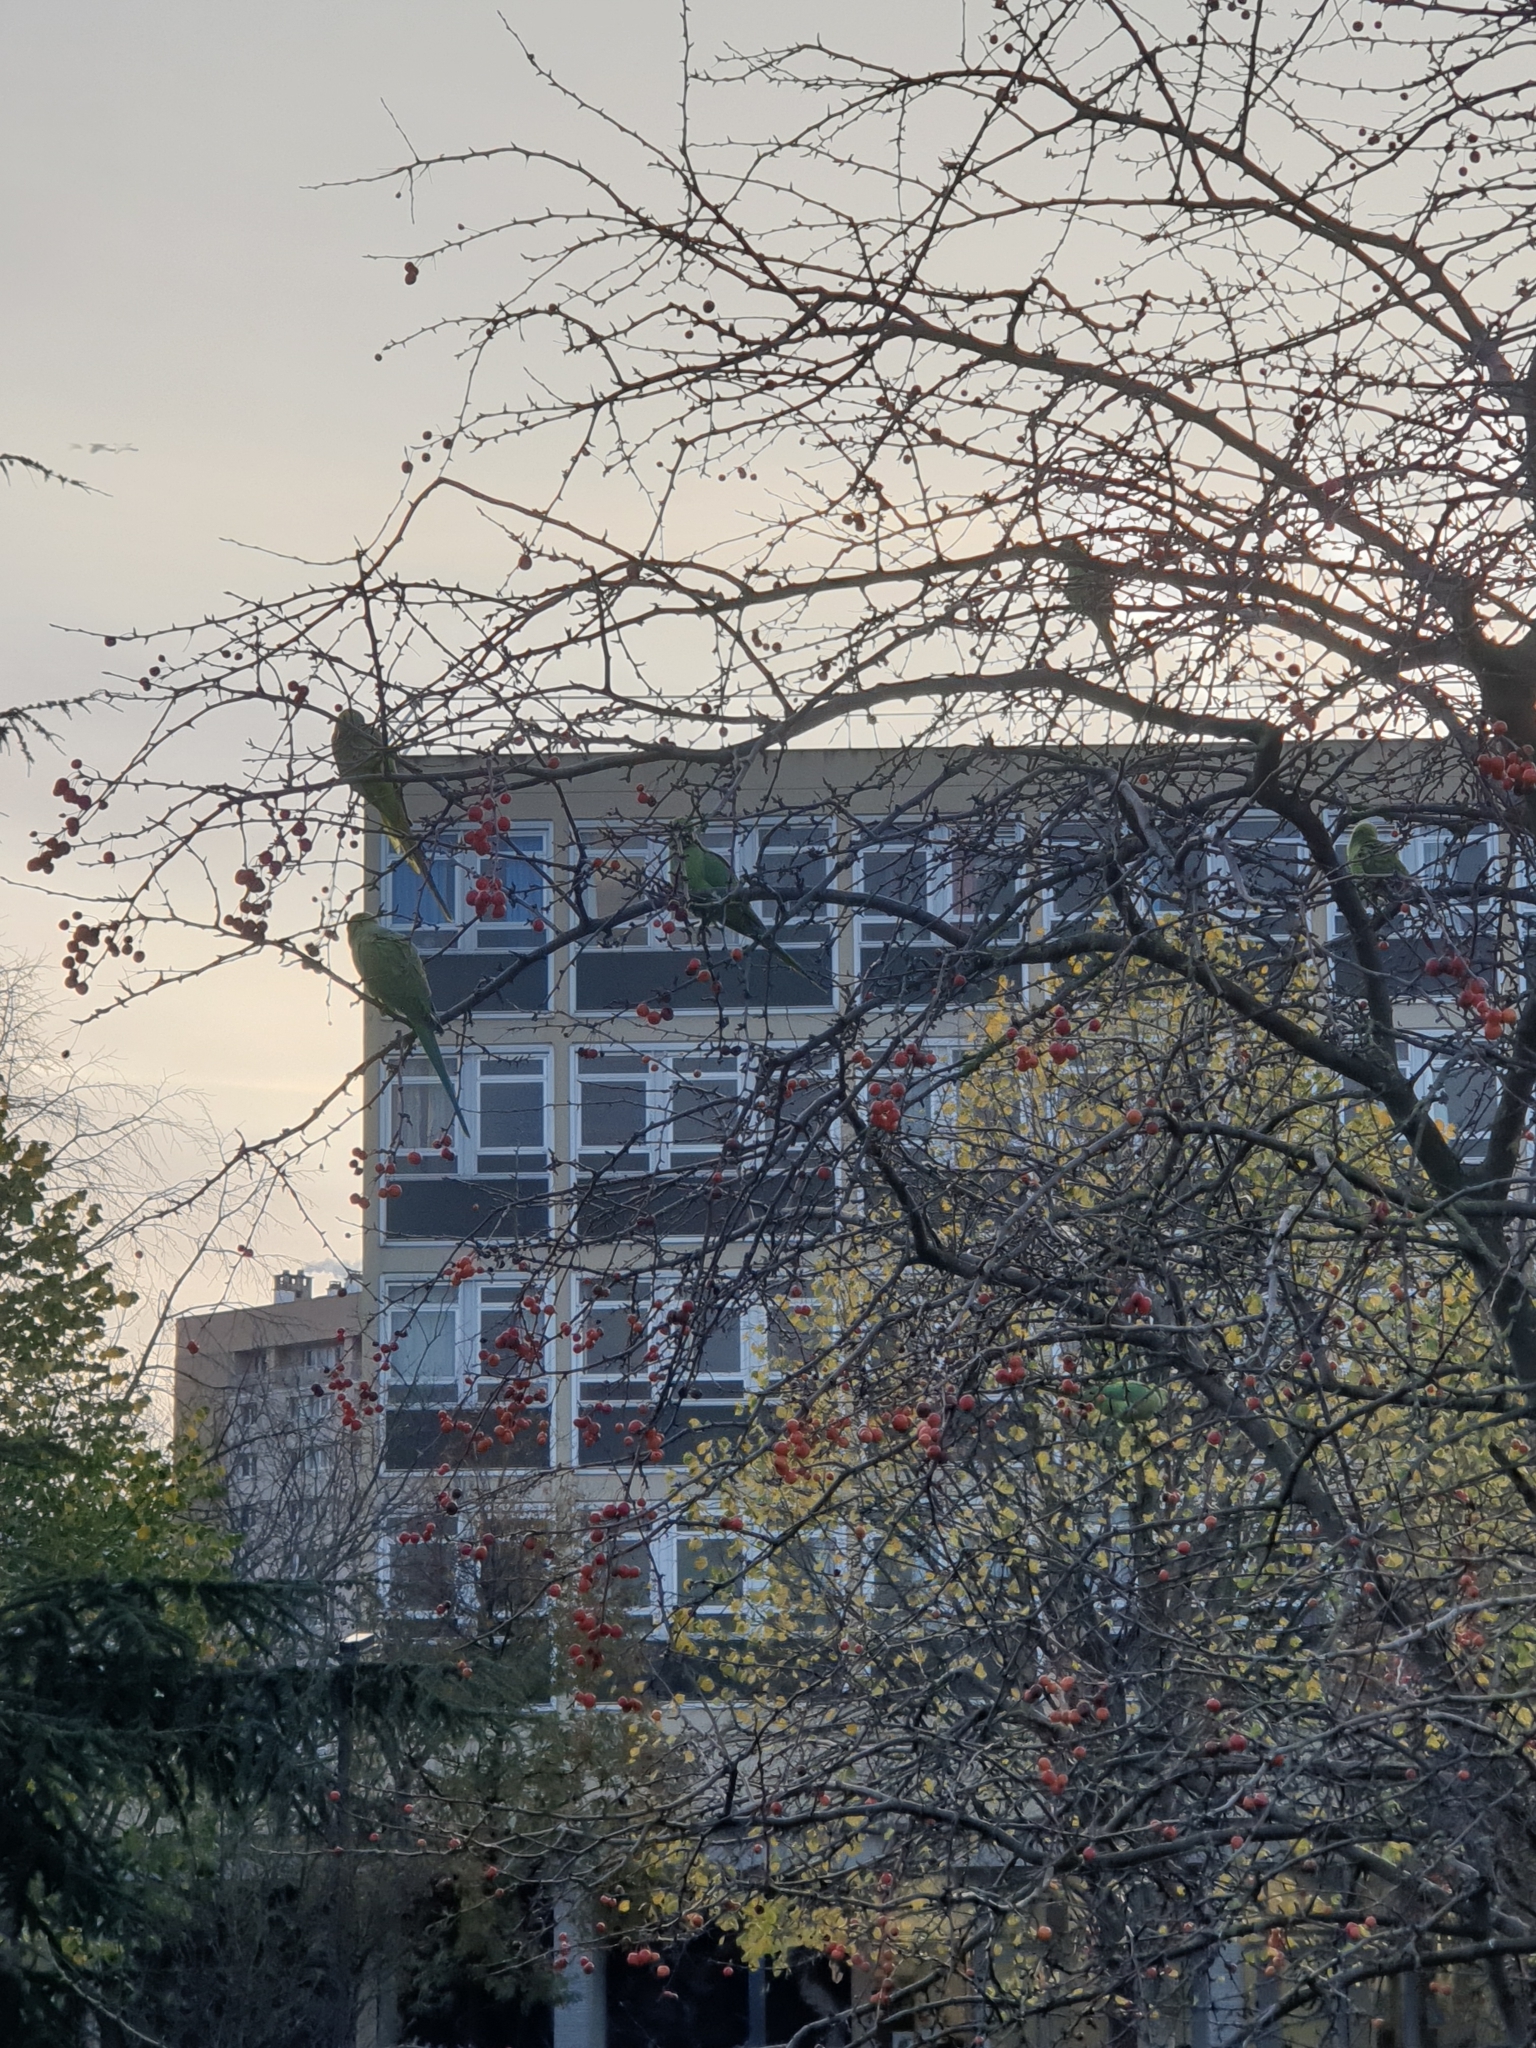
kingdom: Animalia
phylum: Chordata
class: Aves
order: Psittaciformes
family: Psittacidae
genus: Psittacula
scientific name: Psittacula krameri
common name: Rose-ringed parakeet
